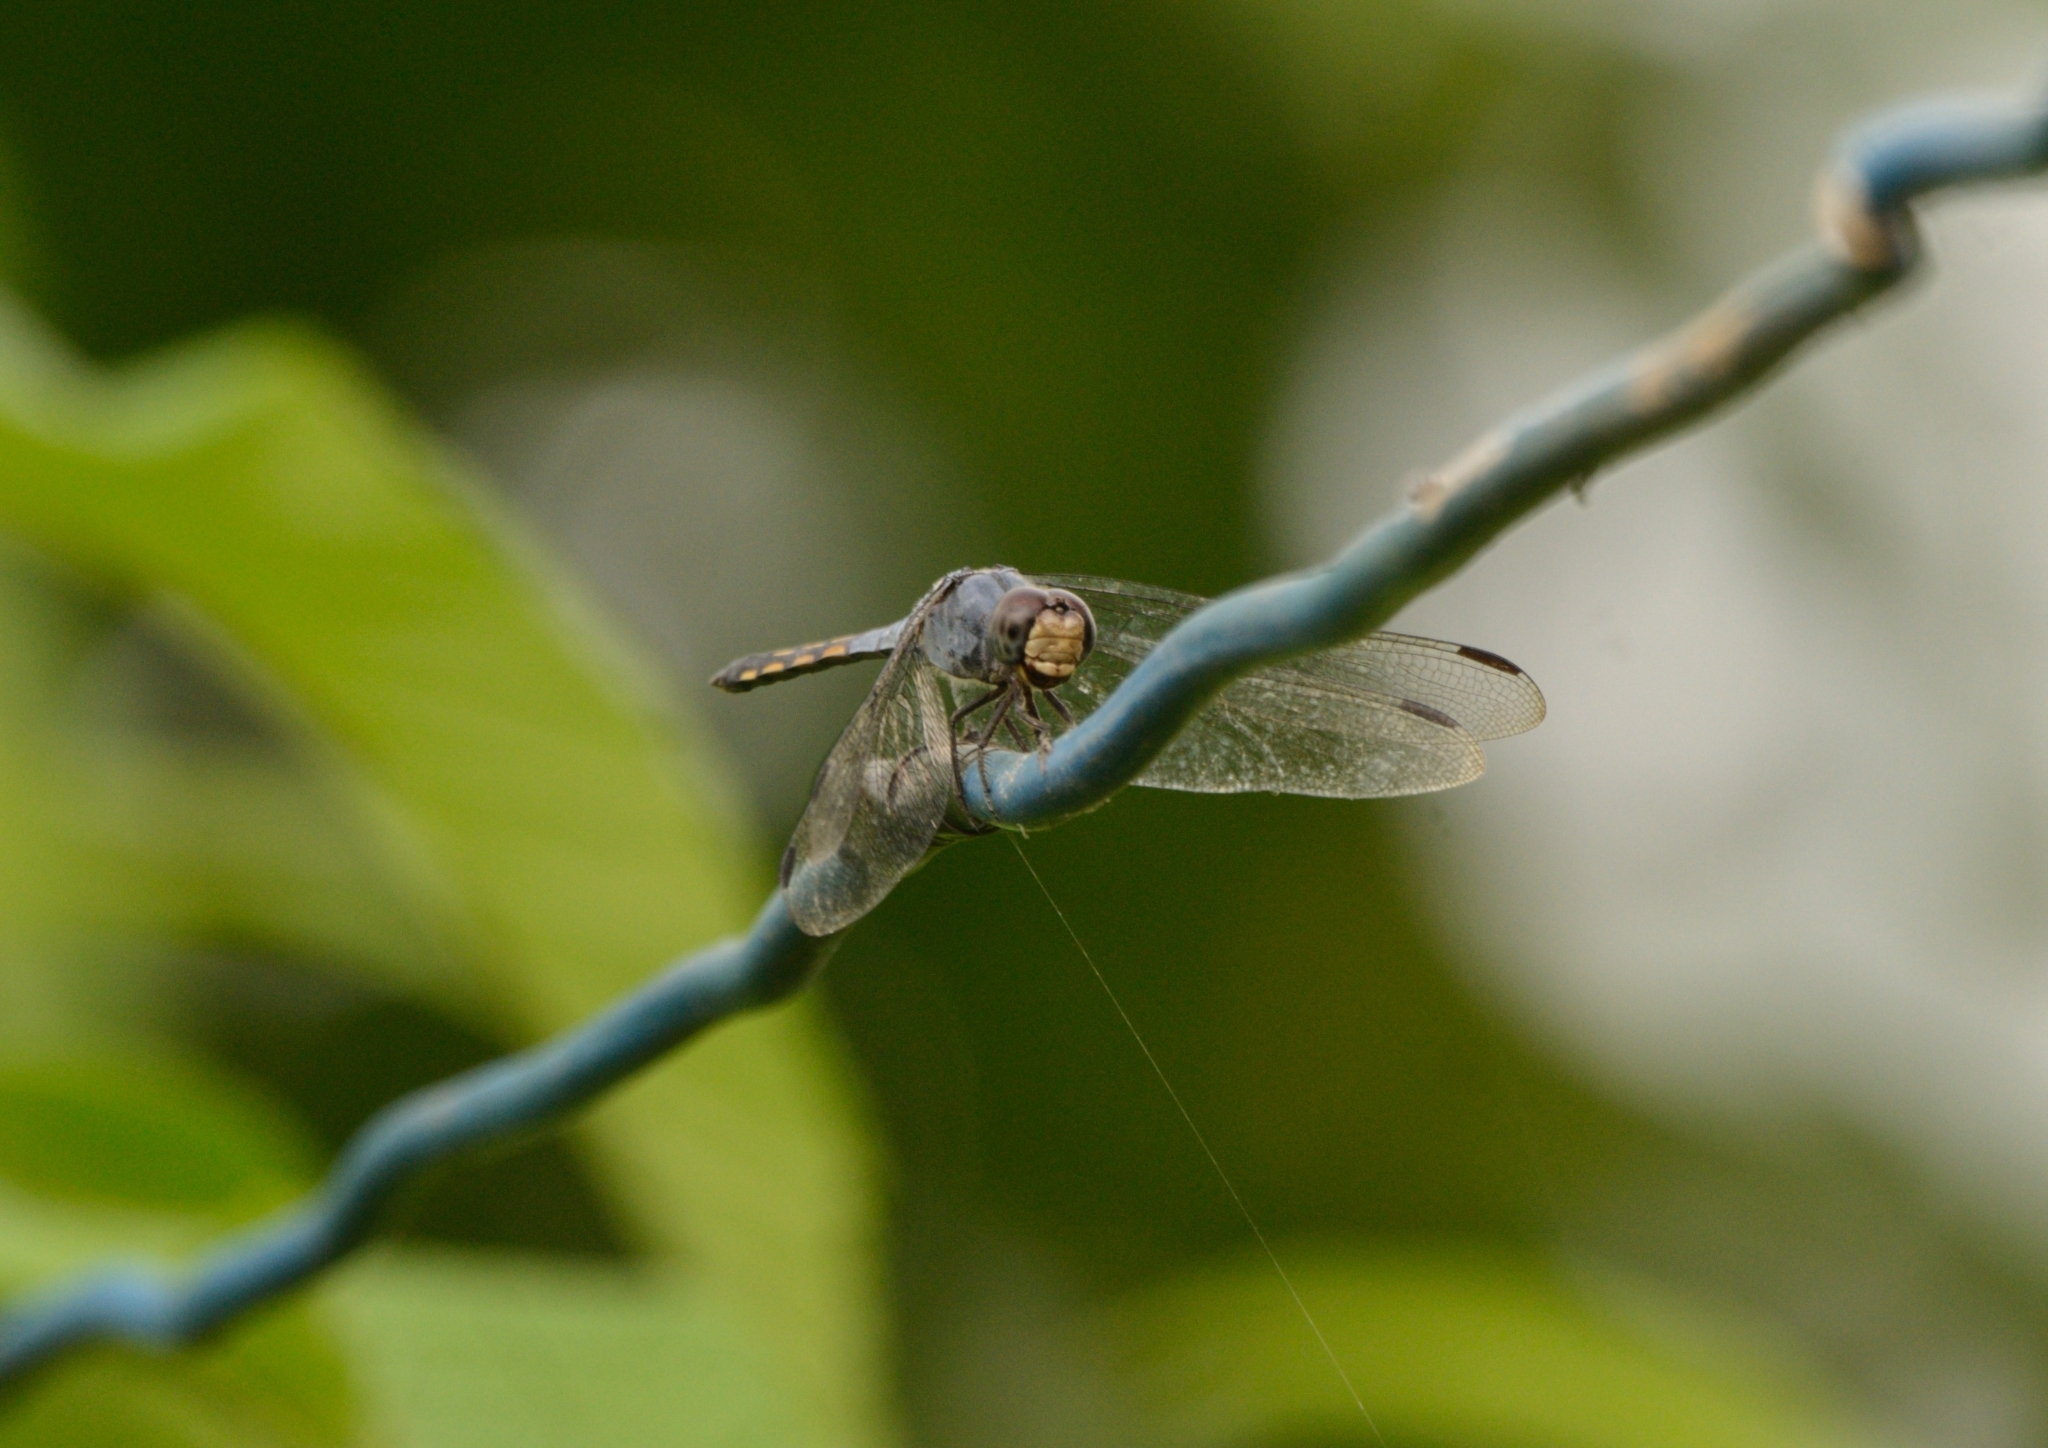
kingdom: Animalia
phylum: Arthropoda
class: Insecta
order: Odonata
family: Libellulidae
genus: Potamarcha
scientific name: Potamarcha congener
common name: Blue chaser
